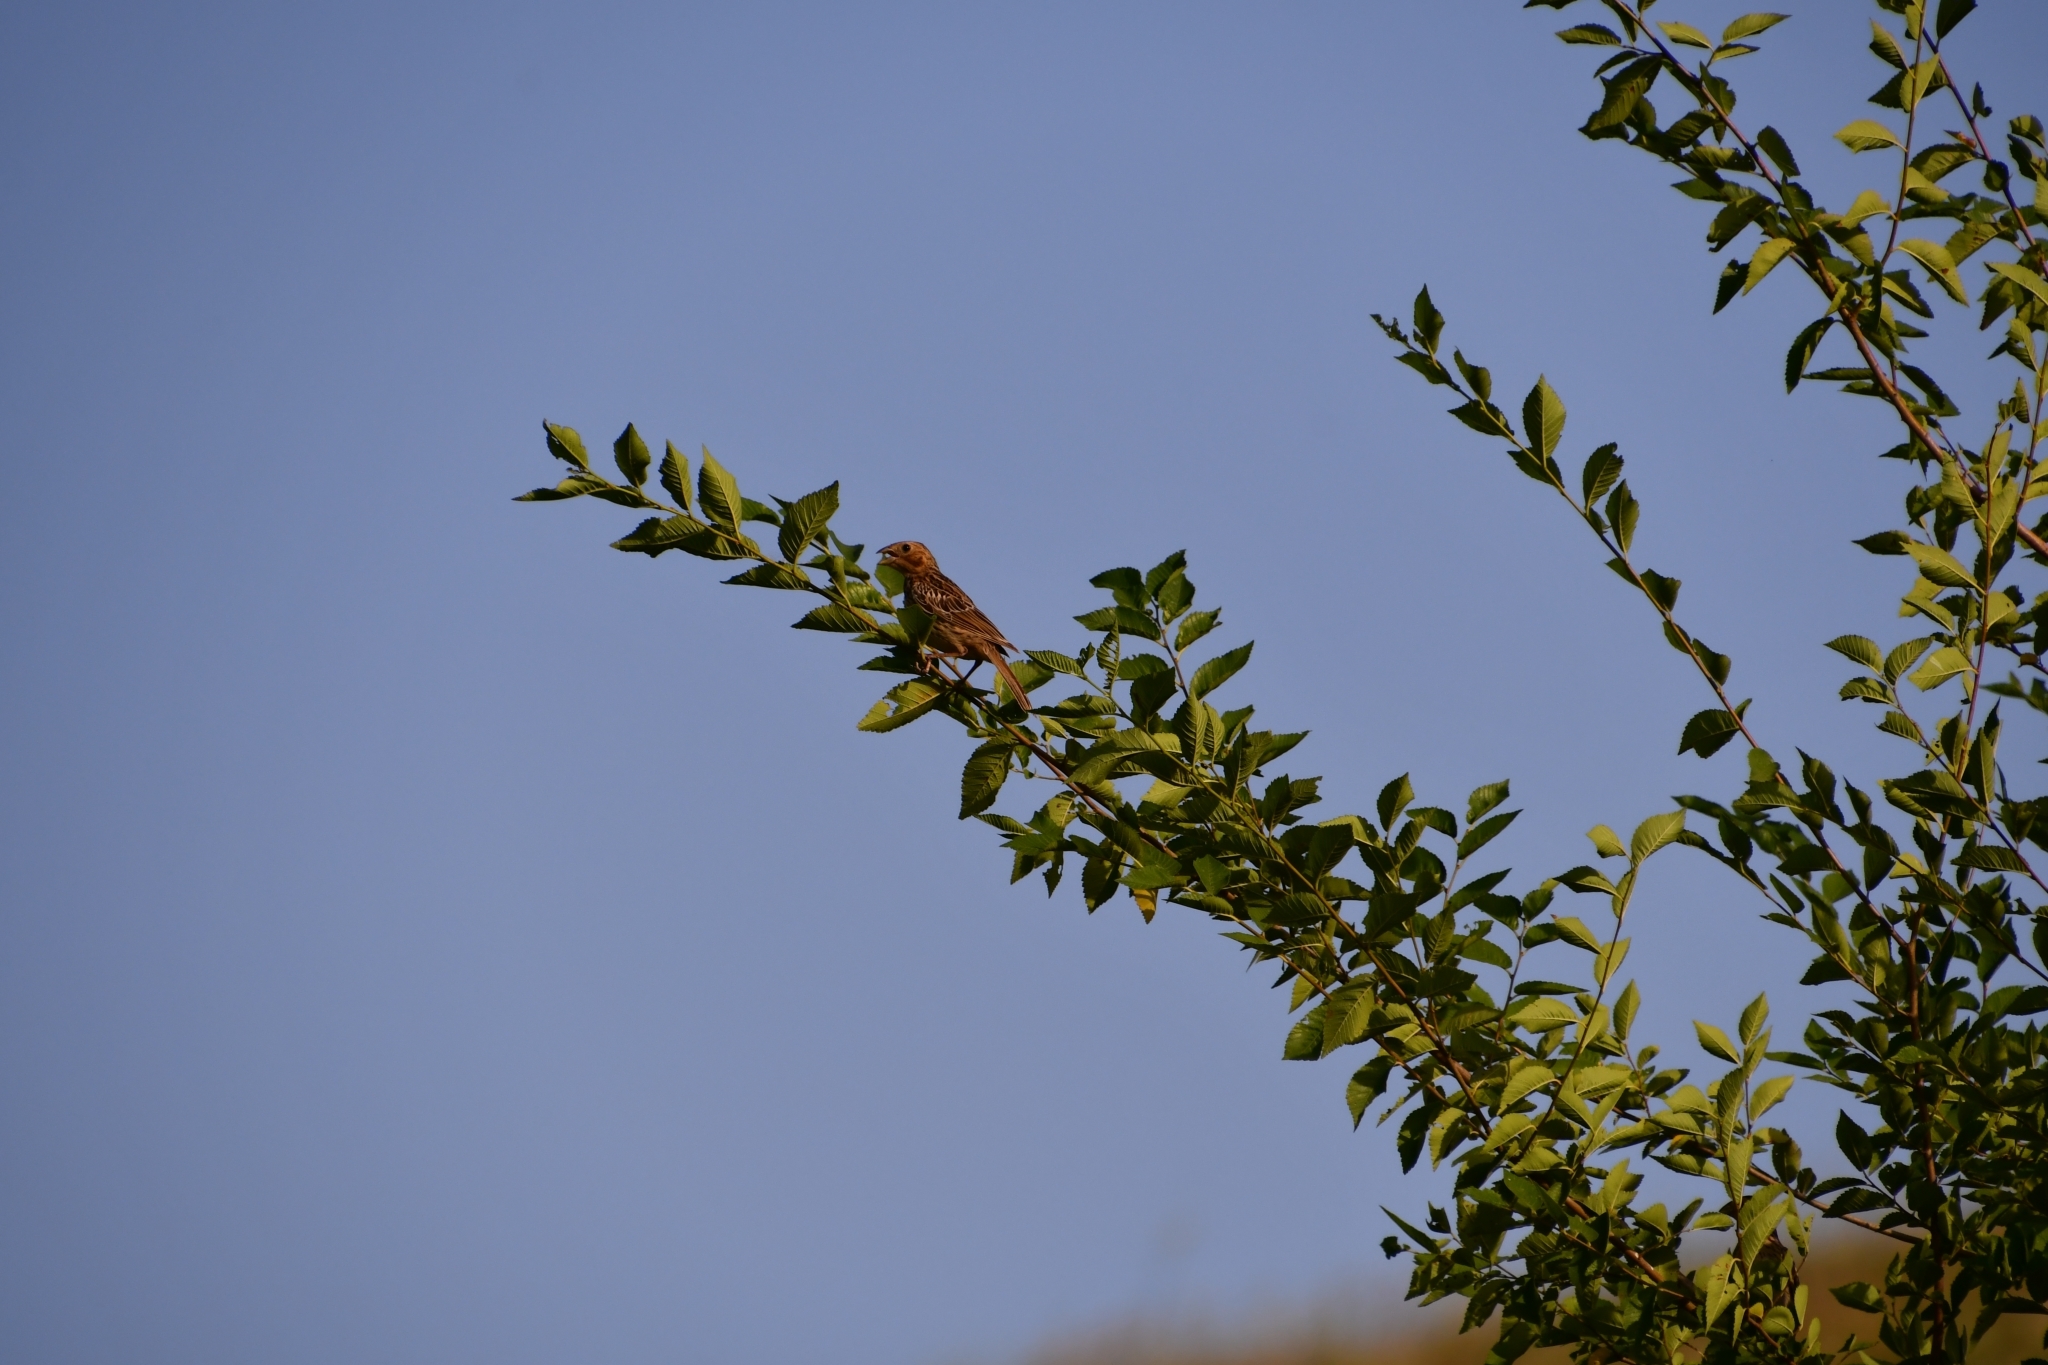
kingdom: Animalia
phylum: Chordata
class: Aves
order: Passeriformes
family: Emberizidae
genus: Emberiza
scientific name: Emberiza calandra
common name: Corn bunting
